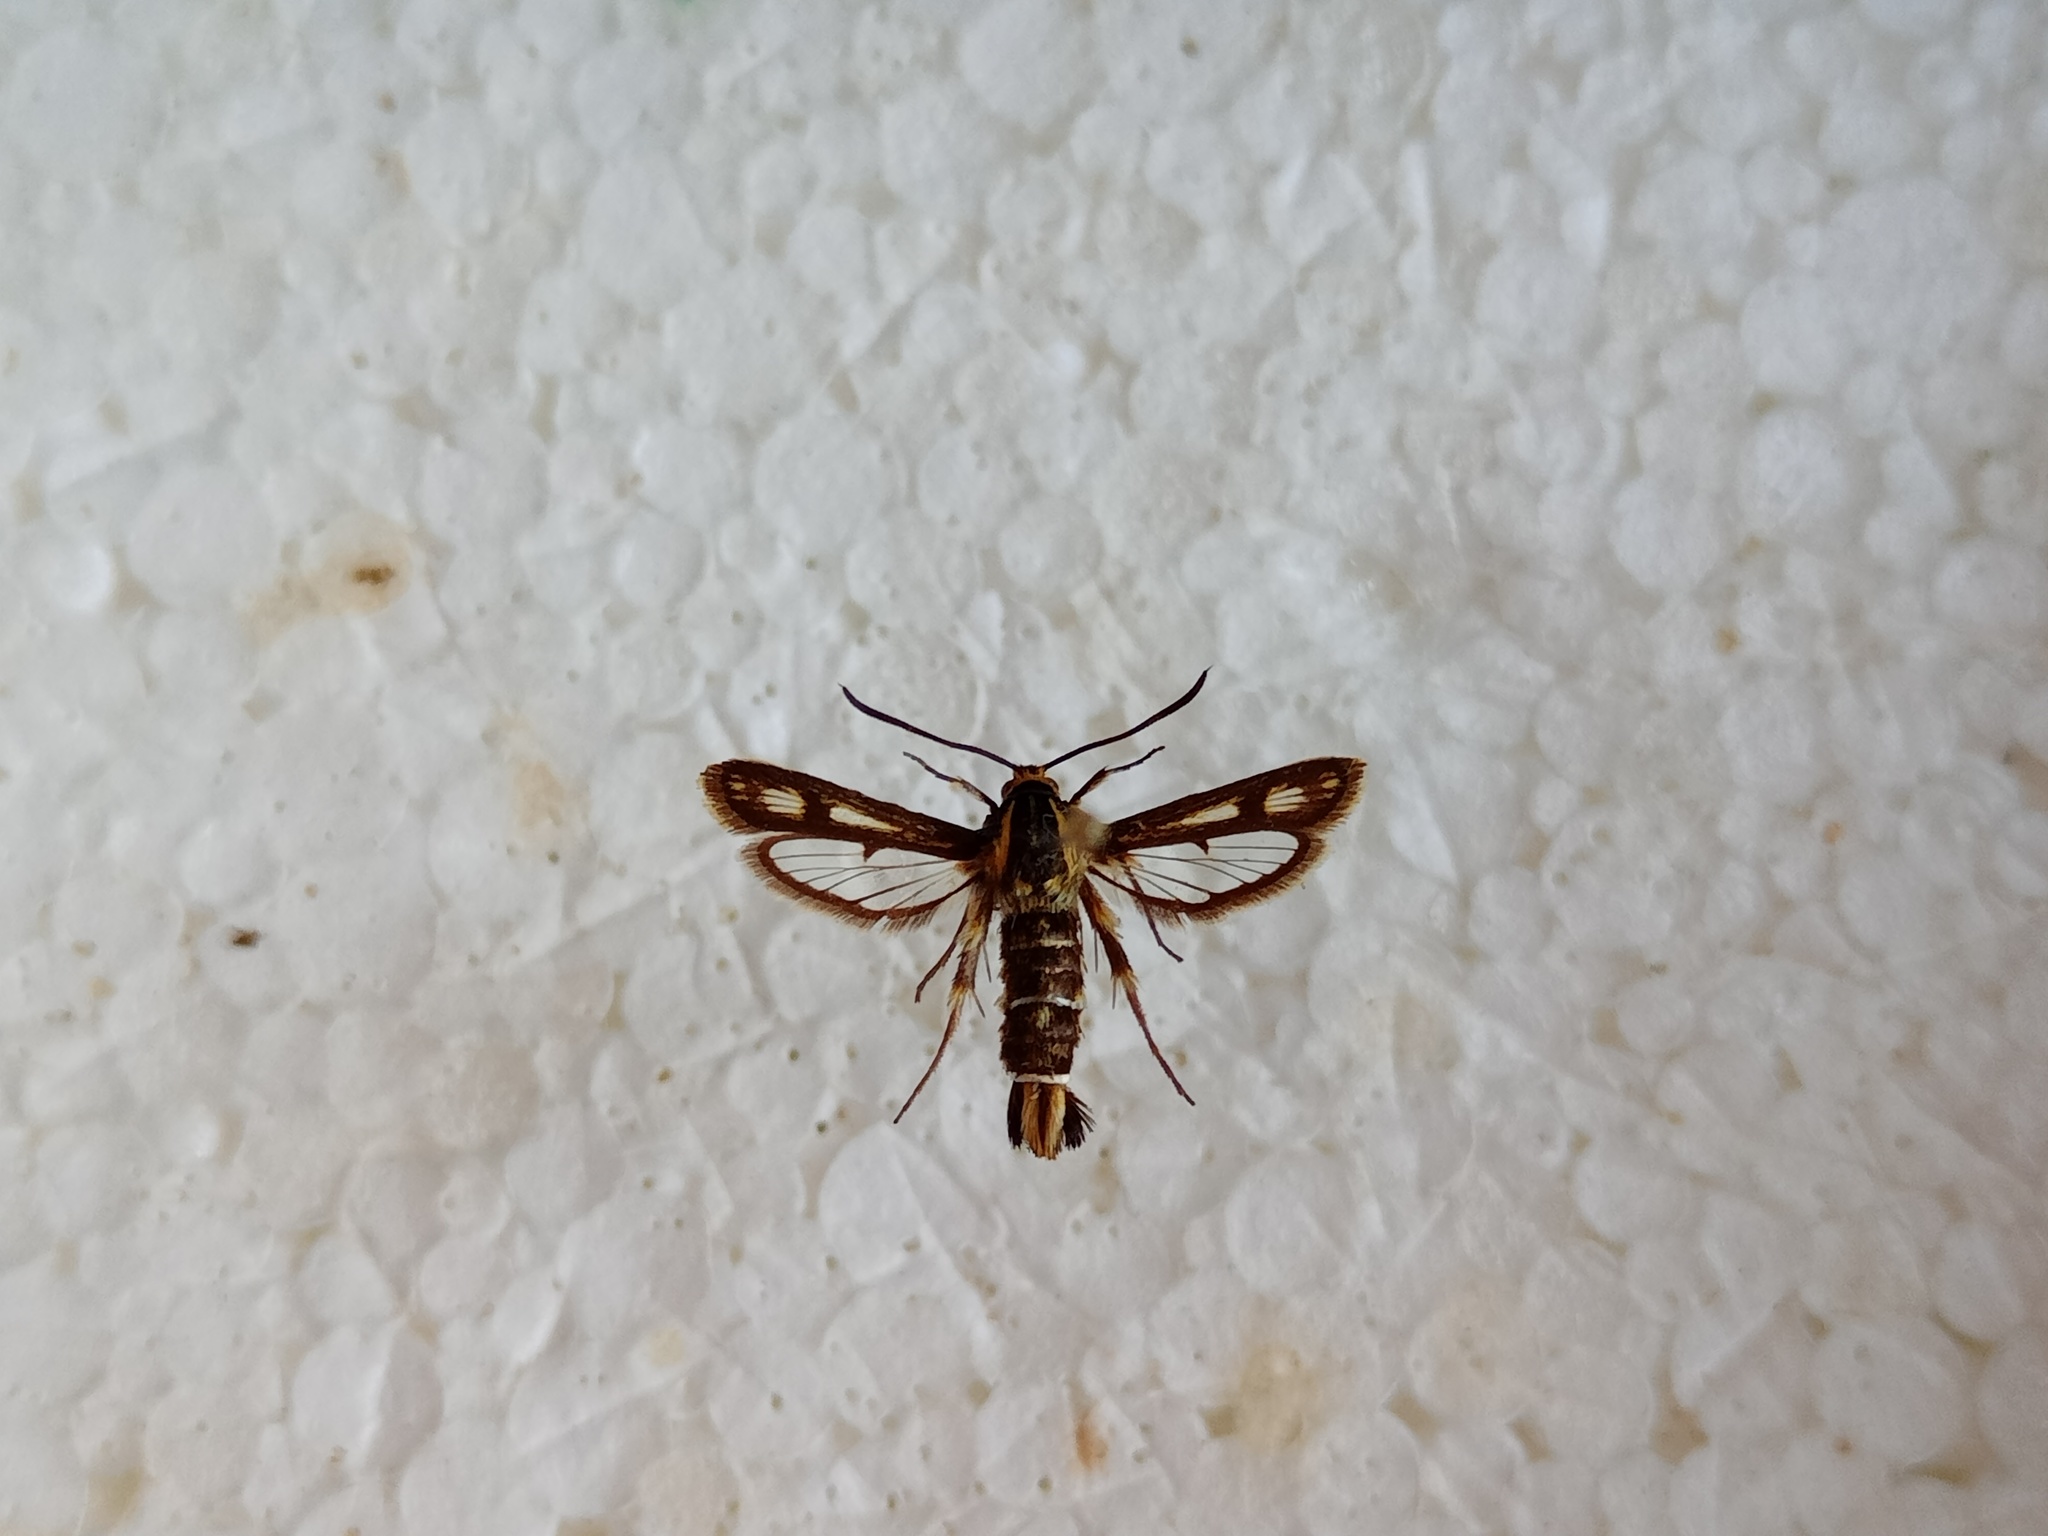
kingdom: Animalia
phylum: Arthropoda
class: Insecta
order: Lepidoptera
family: Sesiidae
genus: Pyropteron
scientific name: Pyropteron muscaeformis
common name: Thrift clearwing
